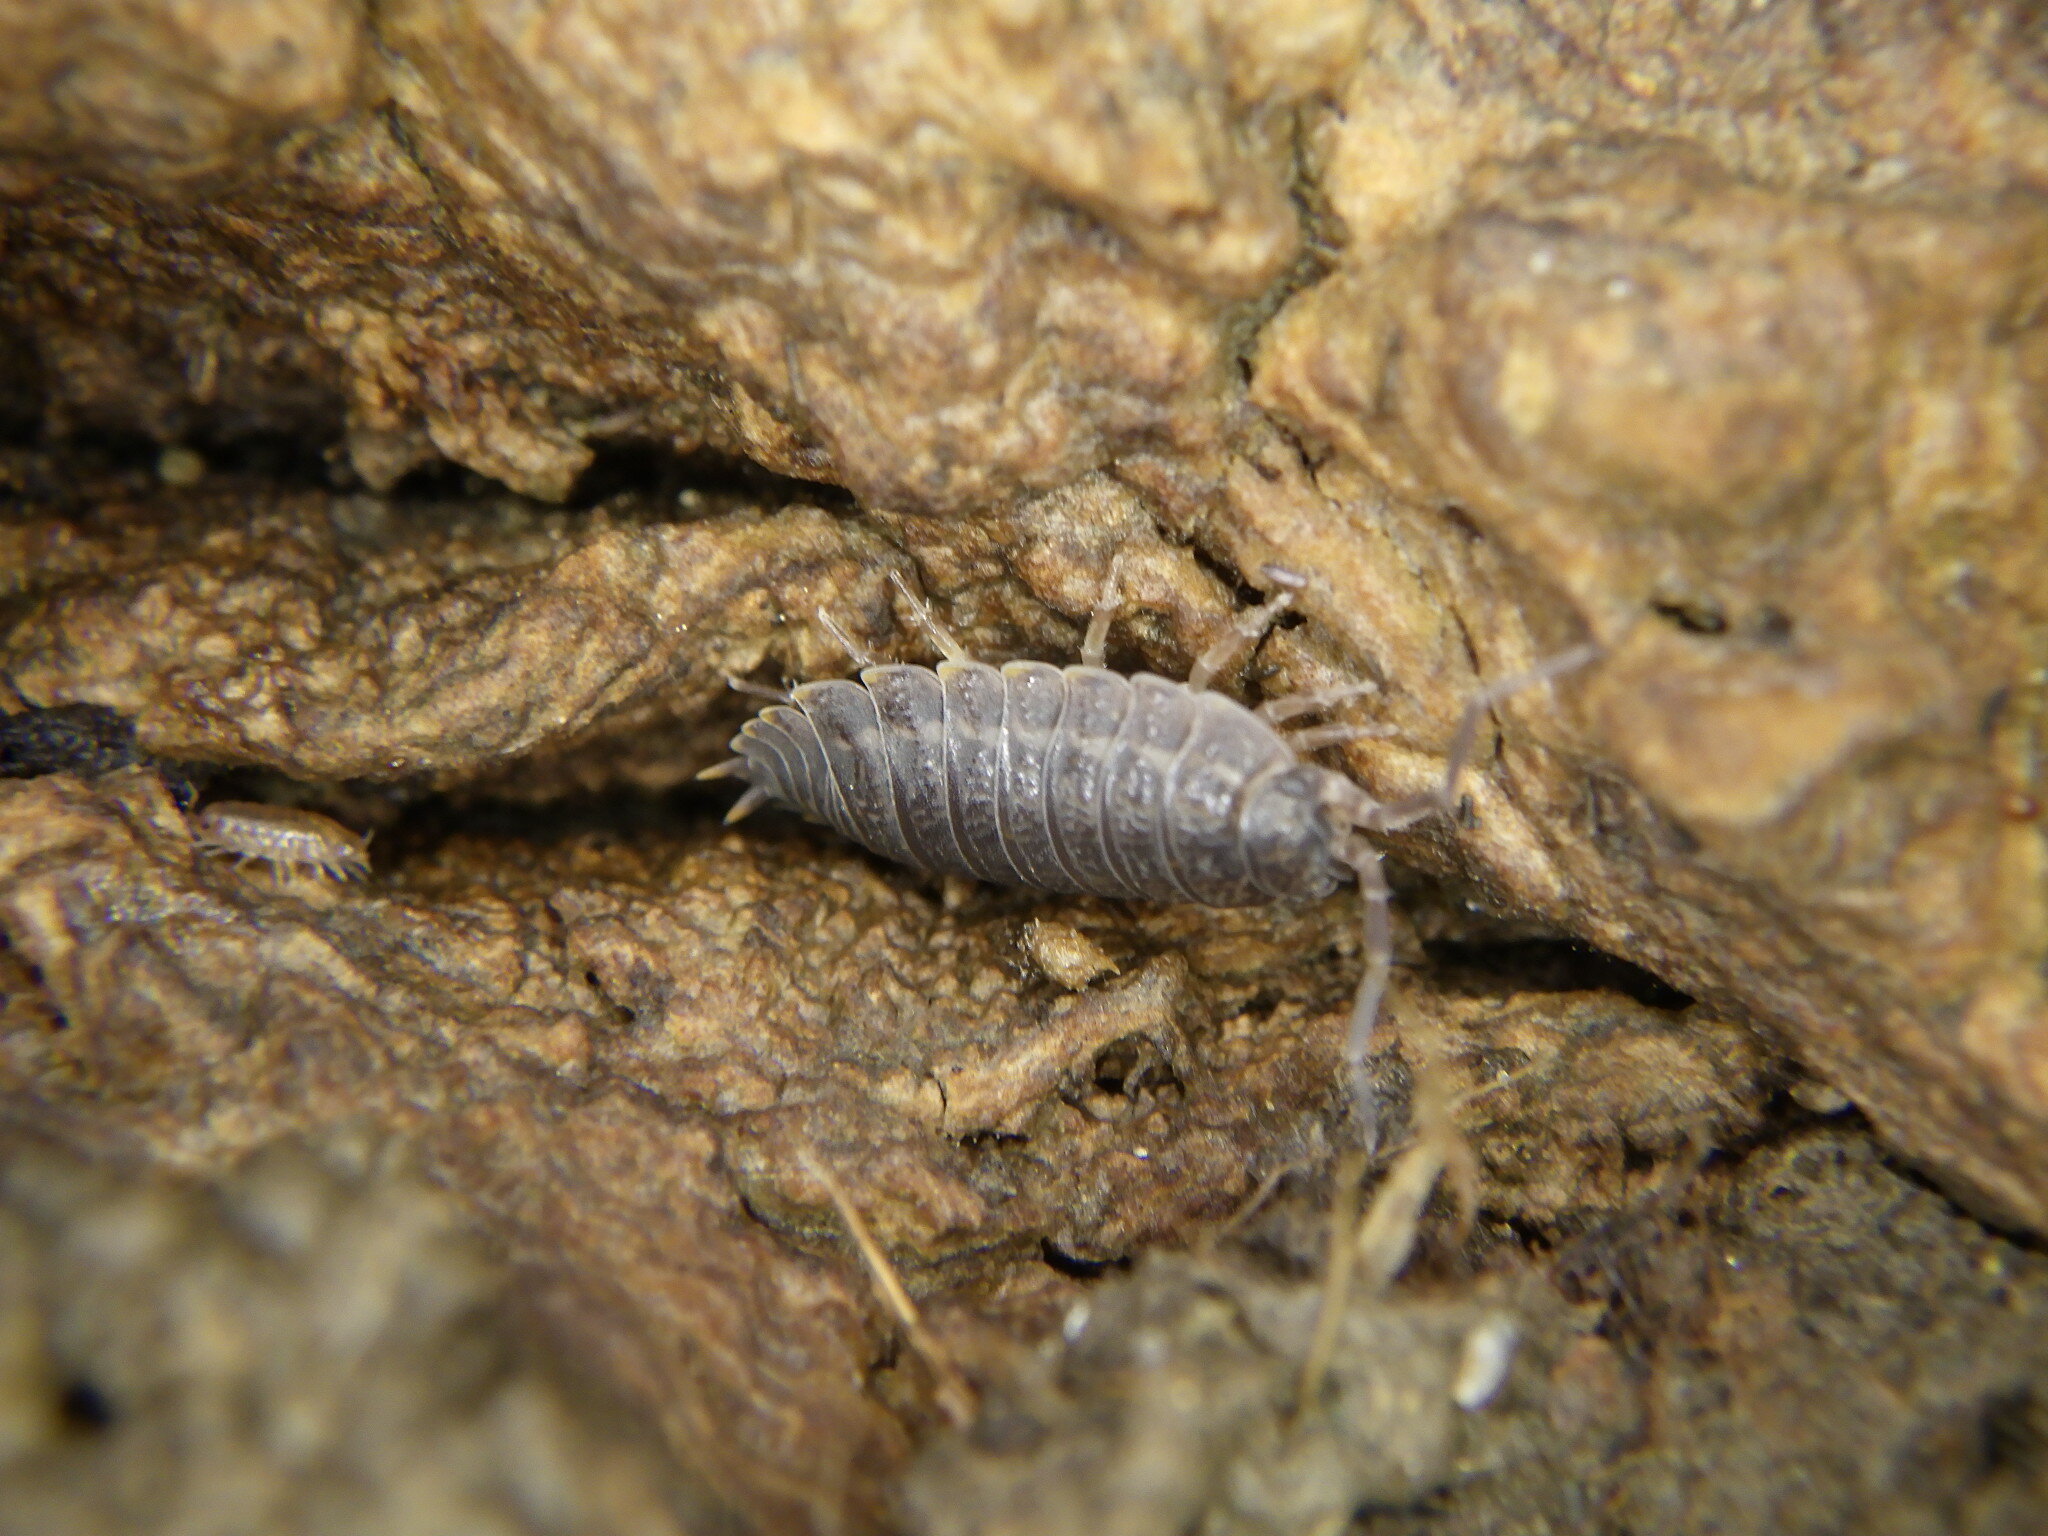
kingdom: Animalia
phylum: Arthropoda
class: Malacostraca
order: Isopoda
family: Trachelipodidae
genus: Trachelipus
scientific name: Trachelipus rathkii
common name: Isopod
